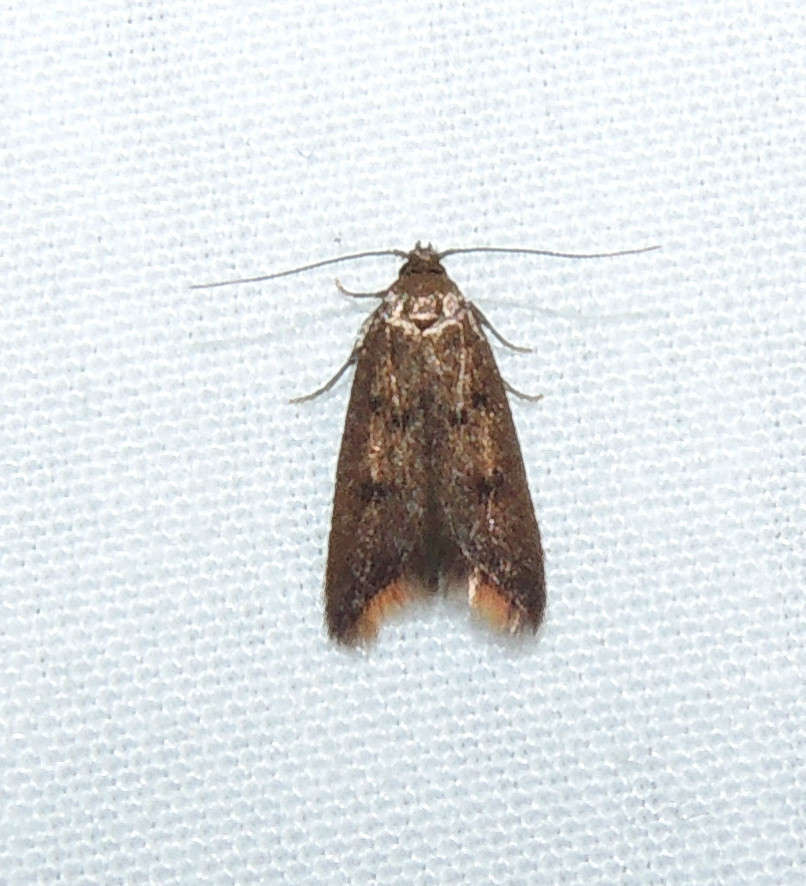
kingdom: Animalia
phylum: Arthropoda
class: Insecta
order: Lepidoptera
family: Oecophoridae
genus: Tachystola
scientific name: Tachystola acroxantha
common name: Ruddy streak
